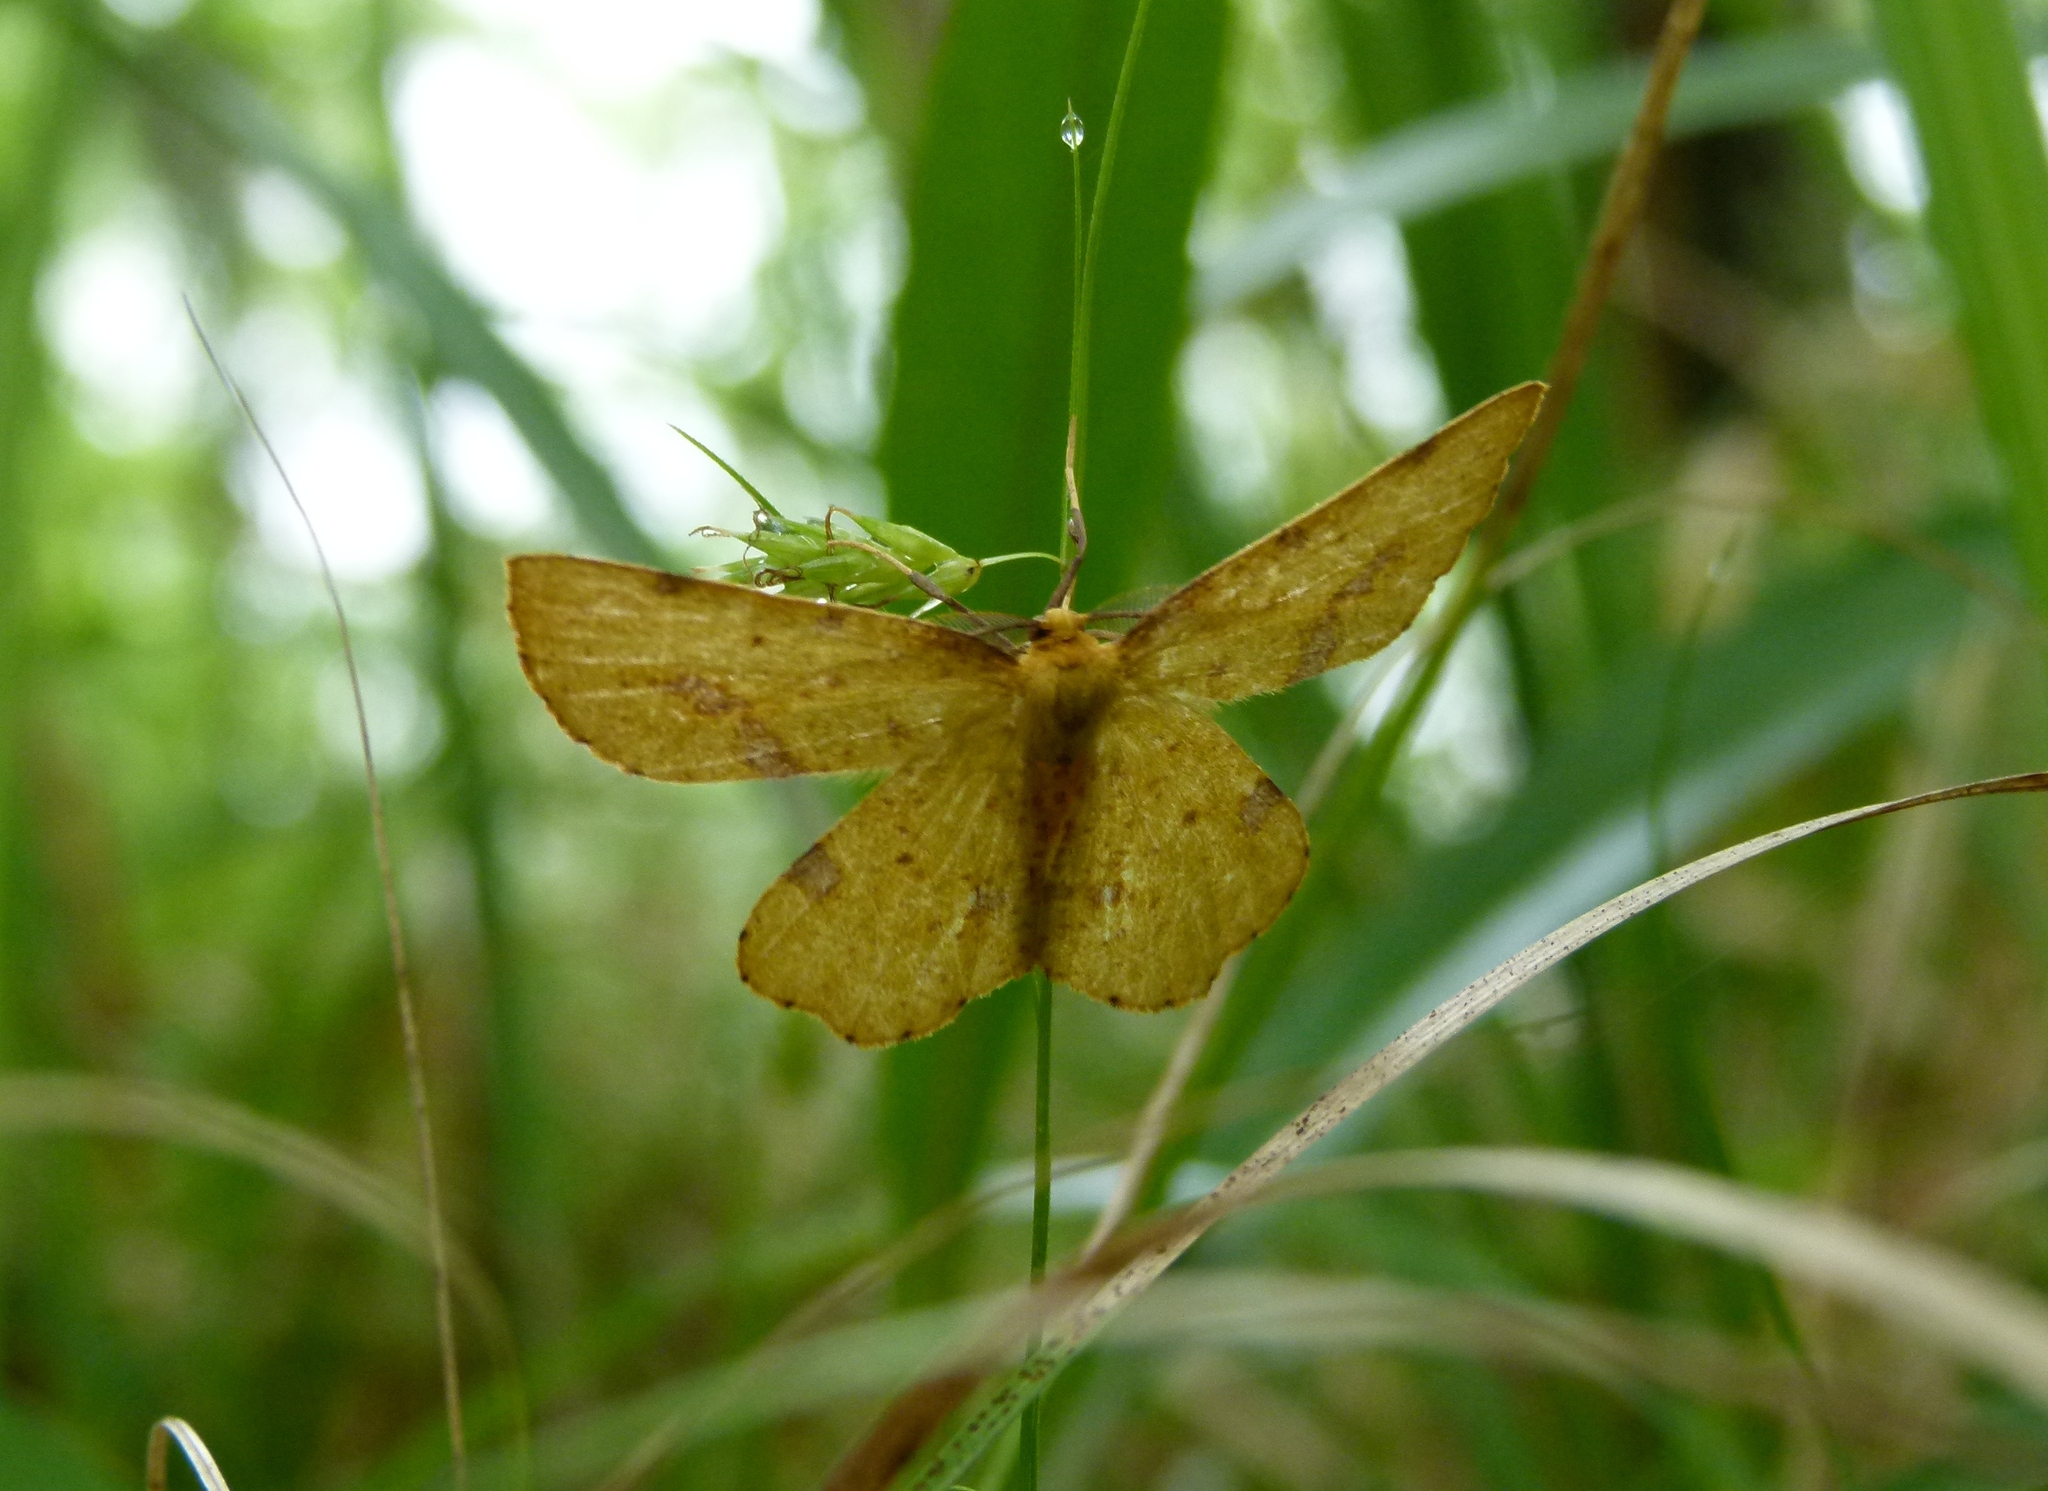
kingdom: Animalia
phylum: Arthropoda
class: Insecta
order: Lepidoptera
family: Geometridae
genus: Xanthotype
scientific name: Xanthotype
